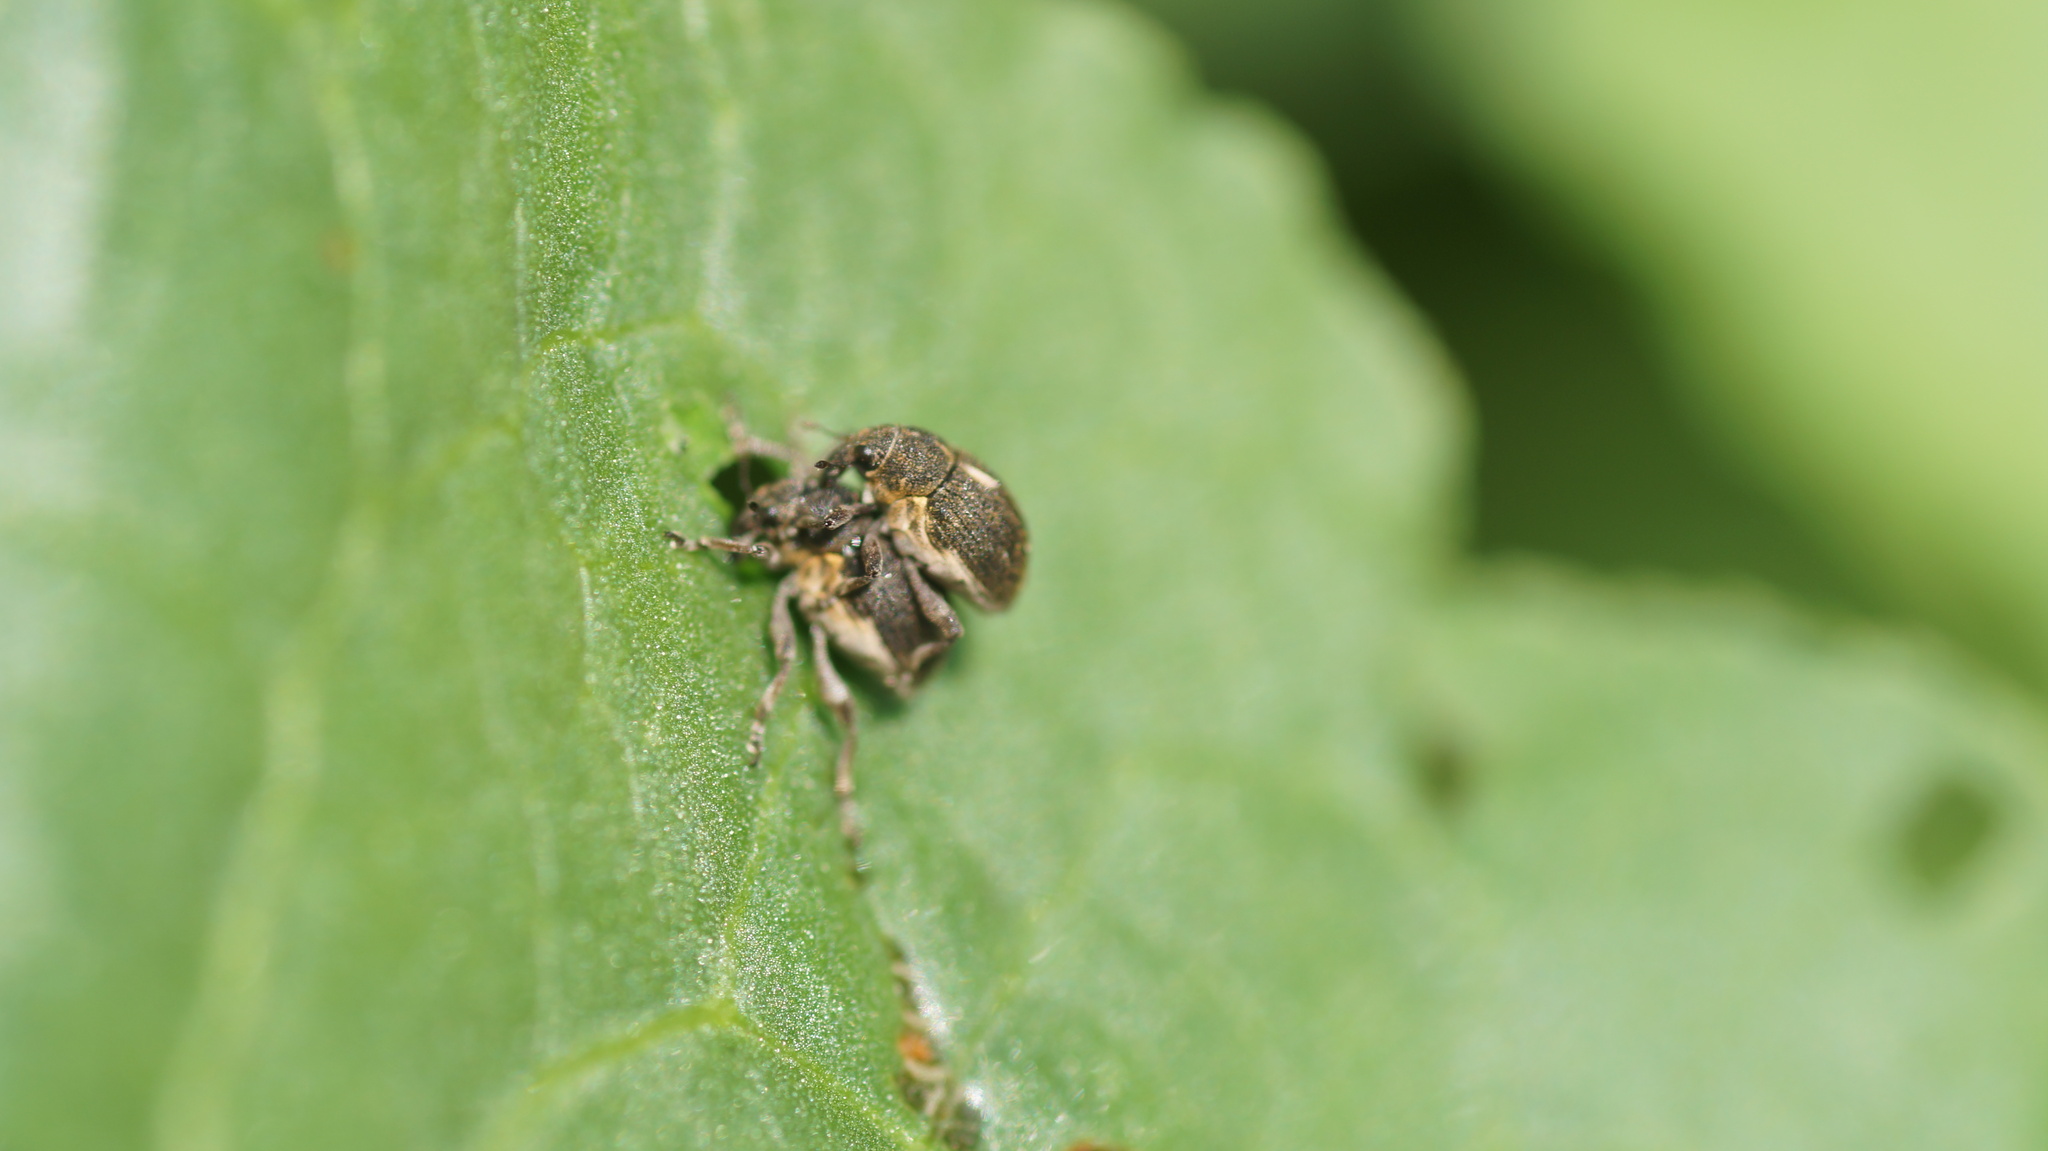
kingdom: Animalia
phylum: Arthropoda
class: Insecta
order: Coleoptera
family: Curculionidae
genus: Rhinoncus
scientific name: Rhinoncus leucostigma
